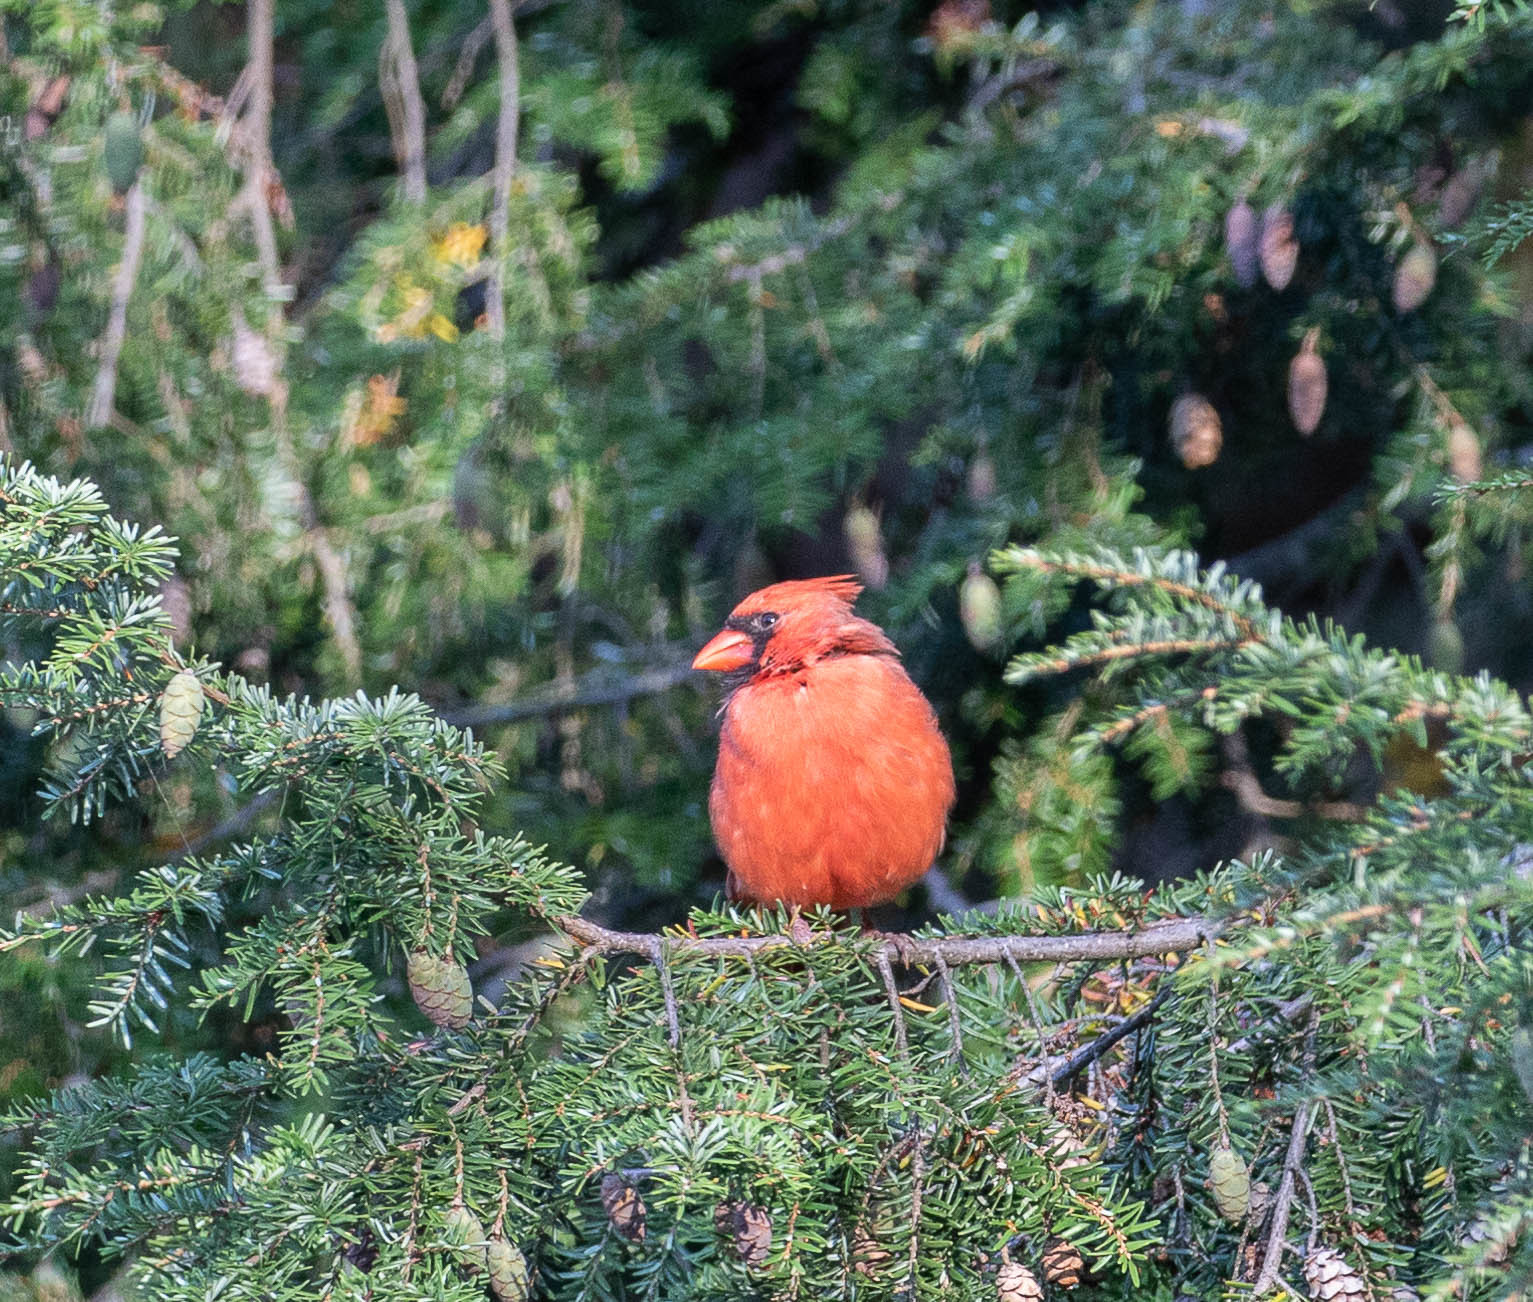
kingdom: Animalia
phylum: Chordata
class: Aves
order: Passeriformes
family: Cardinalidae
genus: Cardinalis
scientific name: Cardinalis cardinalis
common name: Northern cardinal
